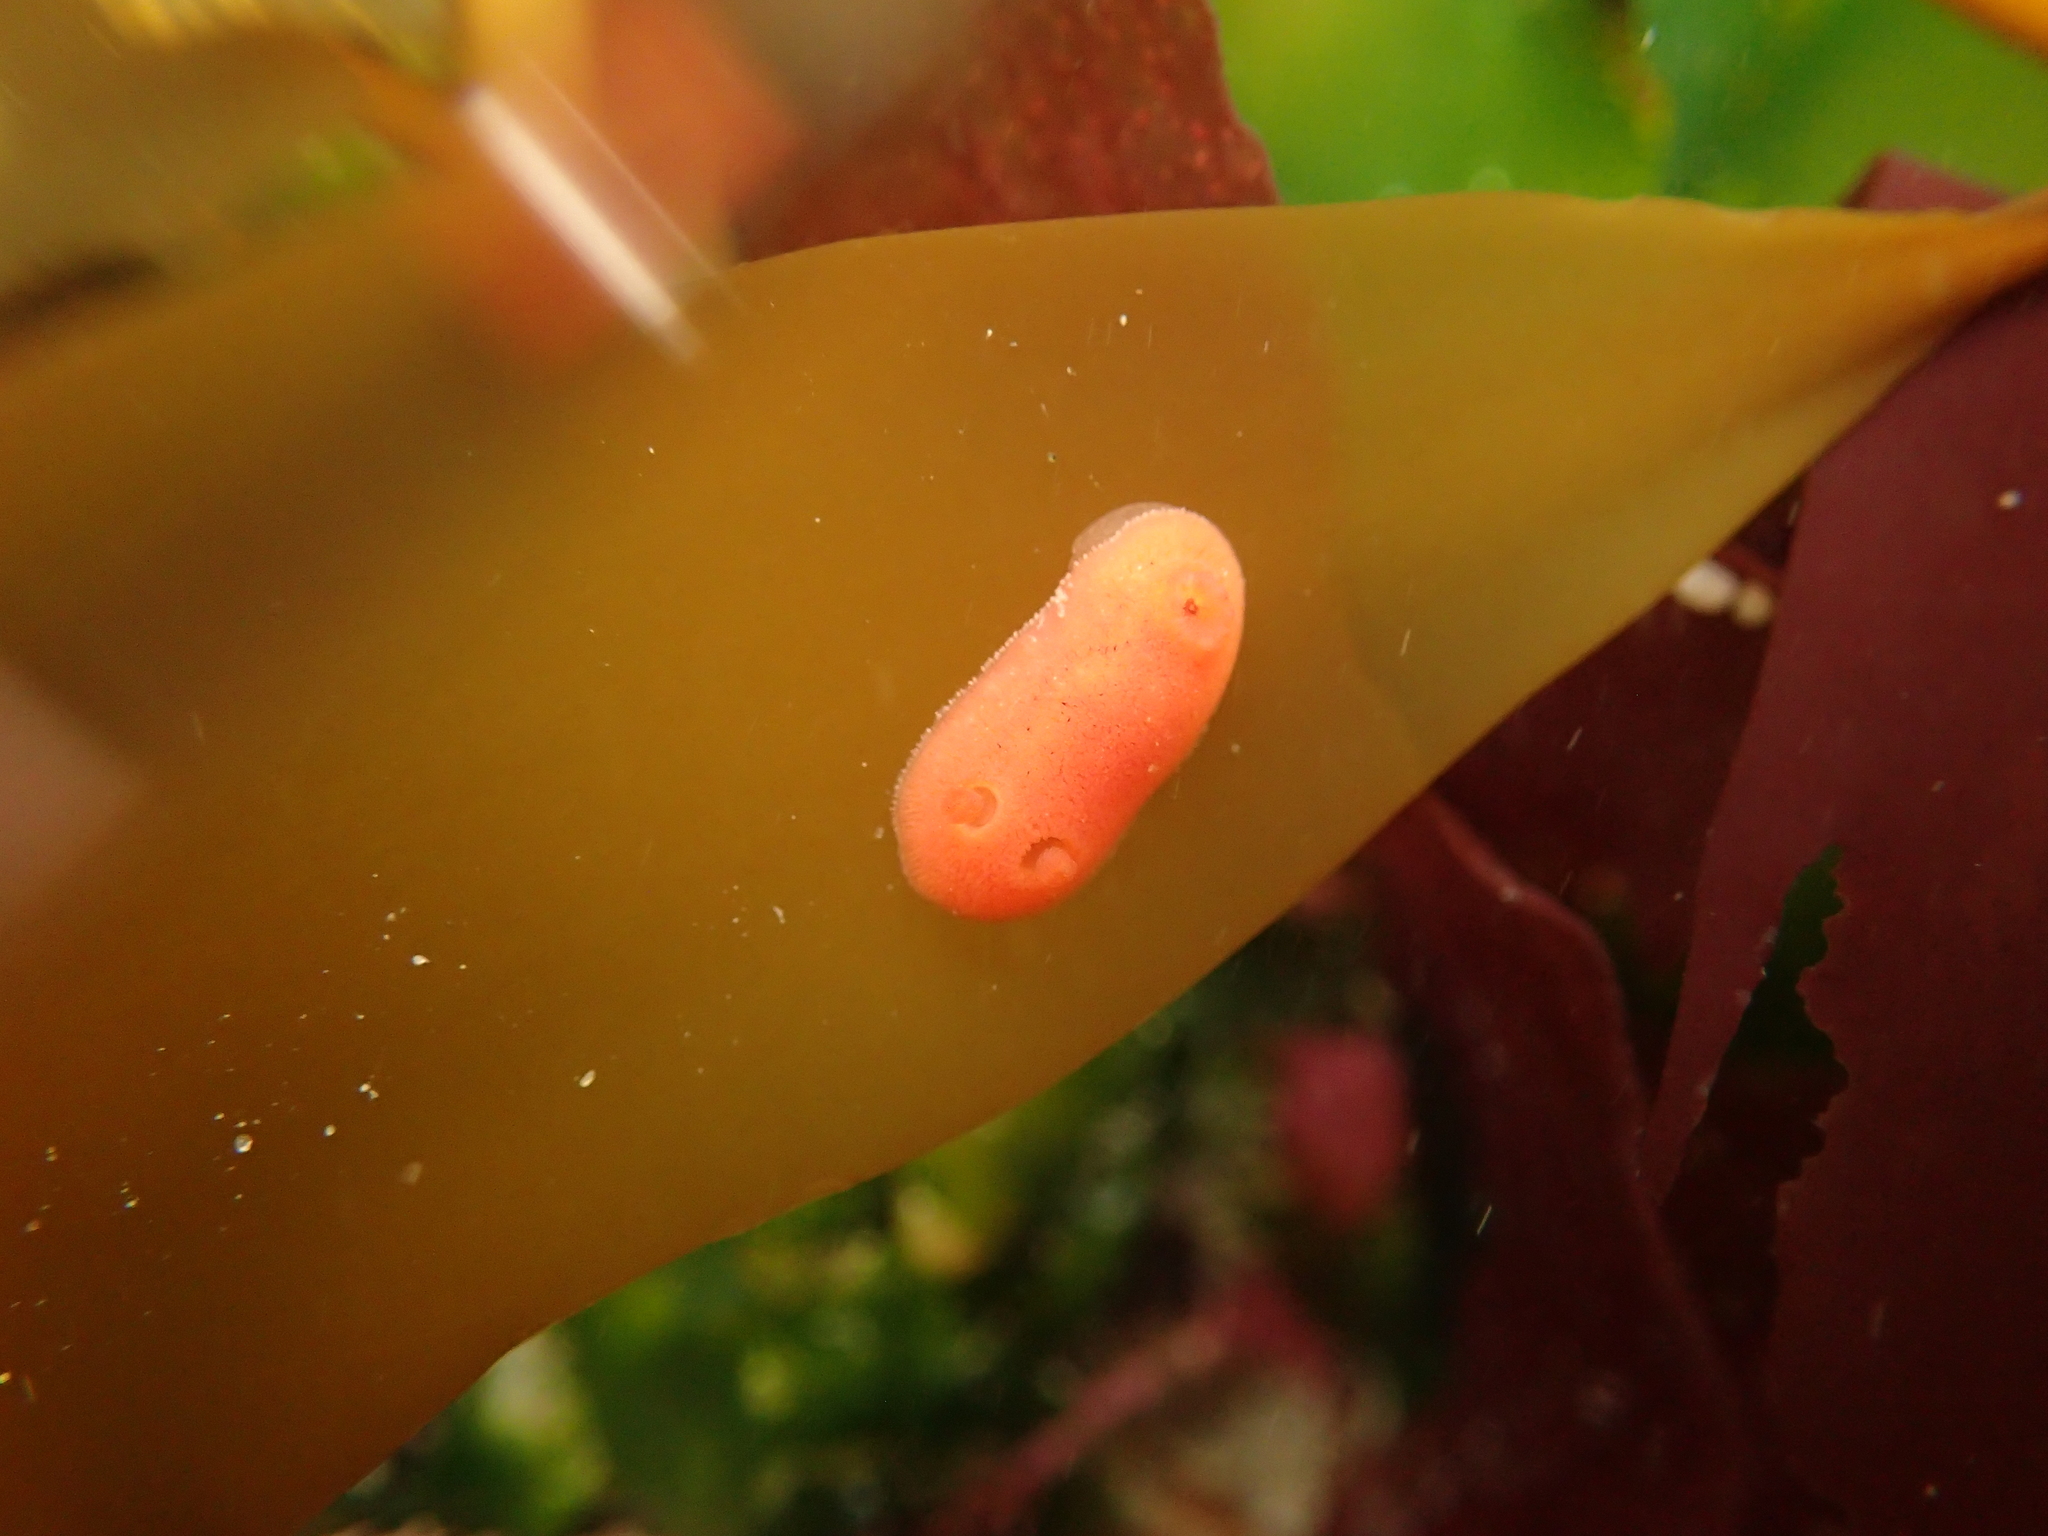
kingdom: Animalia
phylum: Mollusca
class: Gastropoda
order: Nudibranchia
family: Discodorididae
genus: Rostanga
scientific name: Rostanga pulchra
